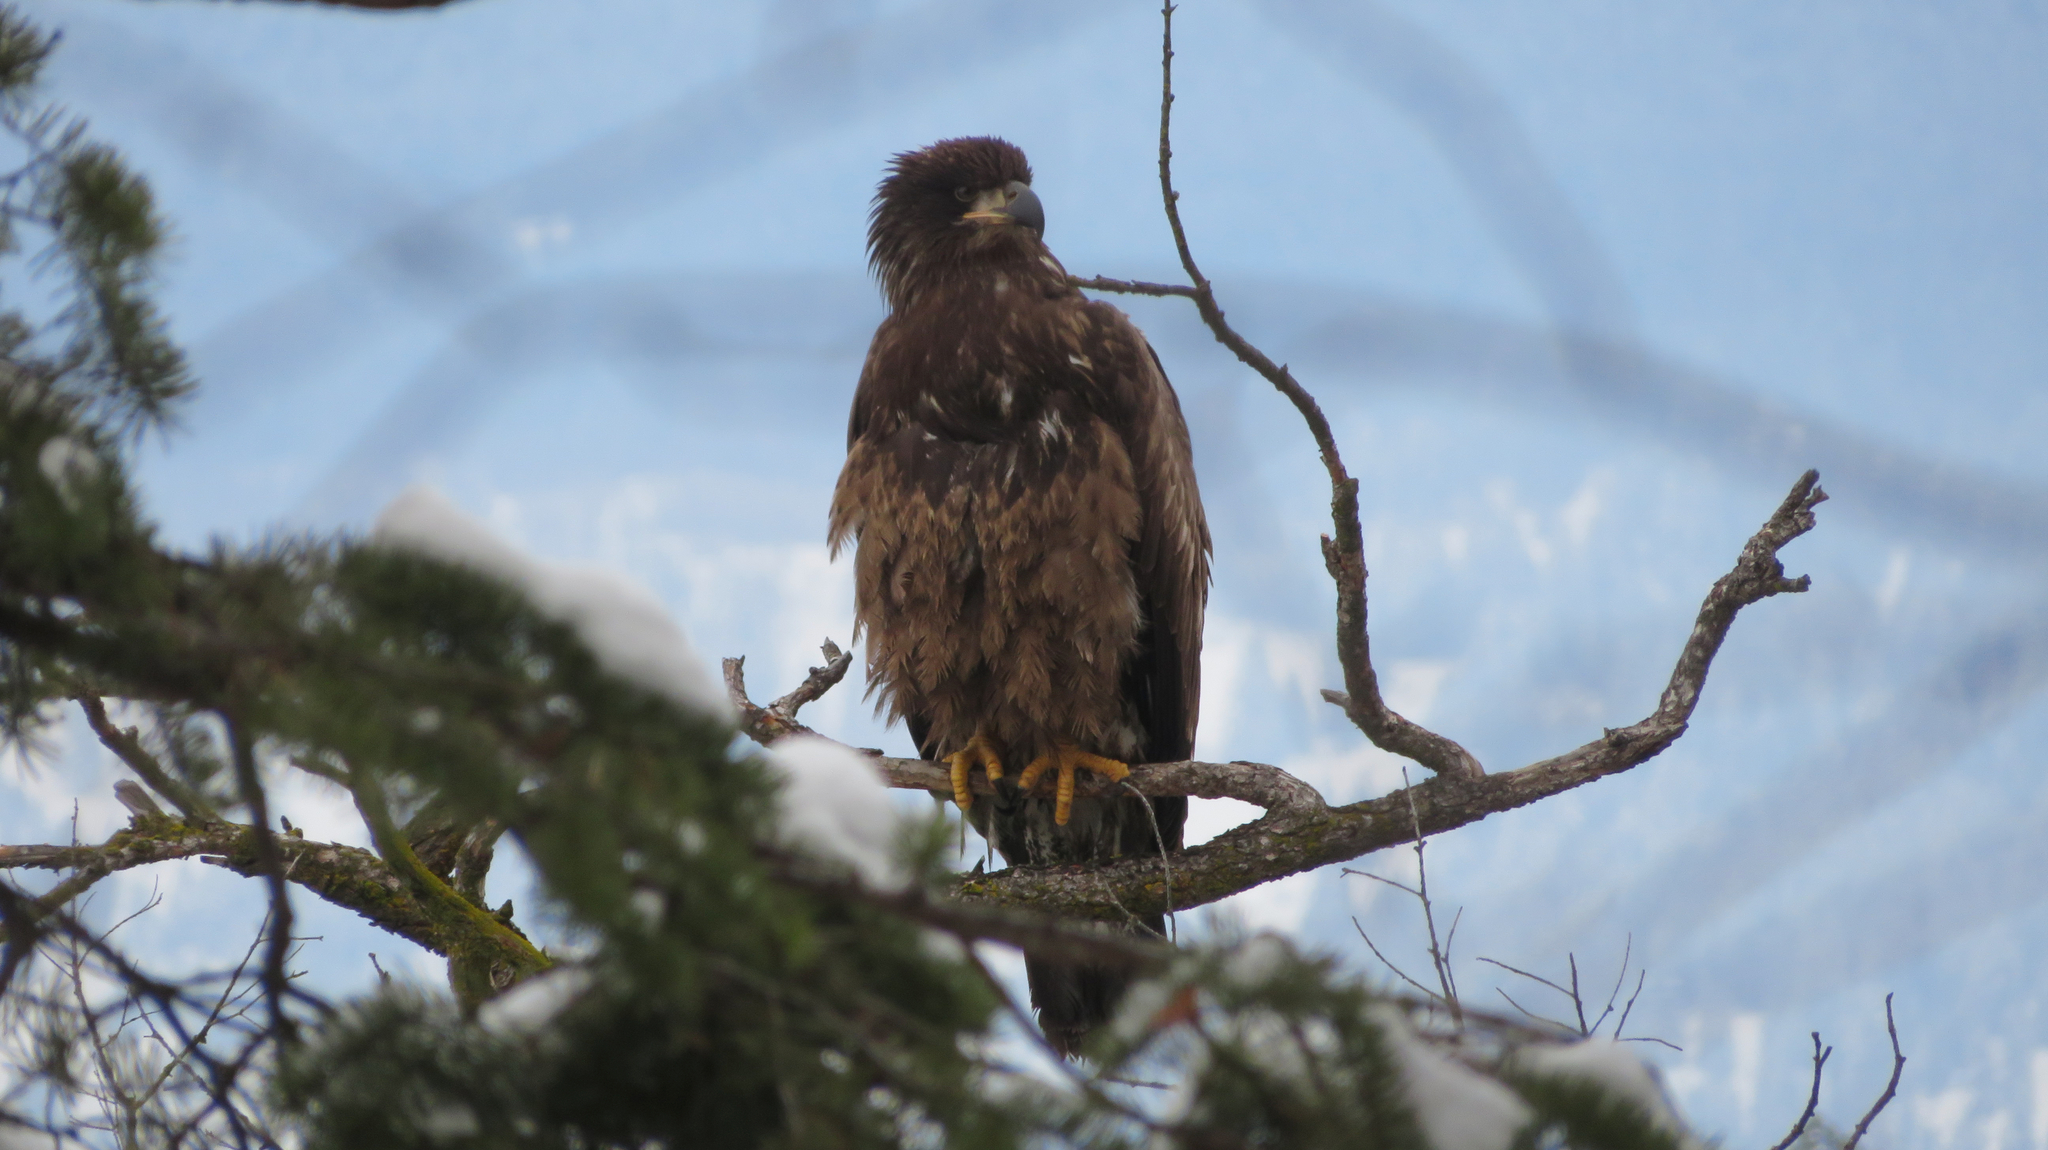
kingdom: Animalia
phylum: Chordata
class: Aves
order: Accipitriformes
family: Accipitridae
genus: Haliaeetus
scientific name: Haliaeetus leucocephalus
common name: Bald eagle
